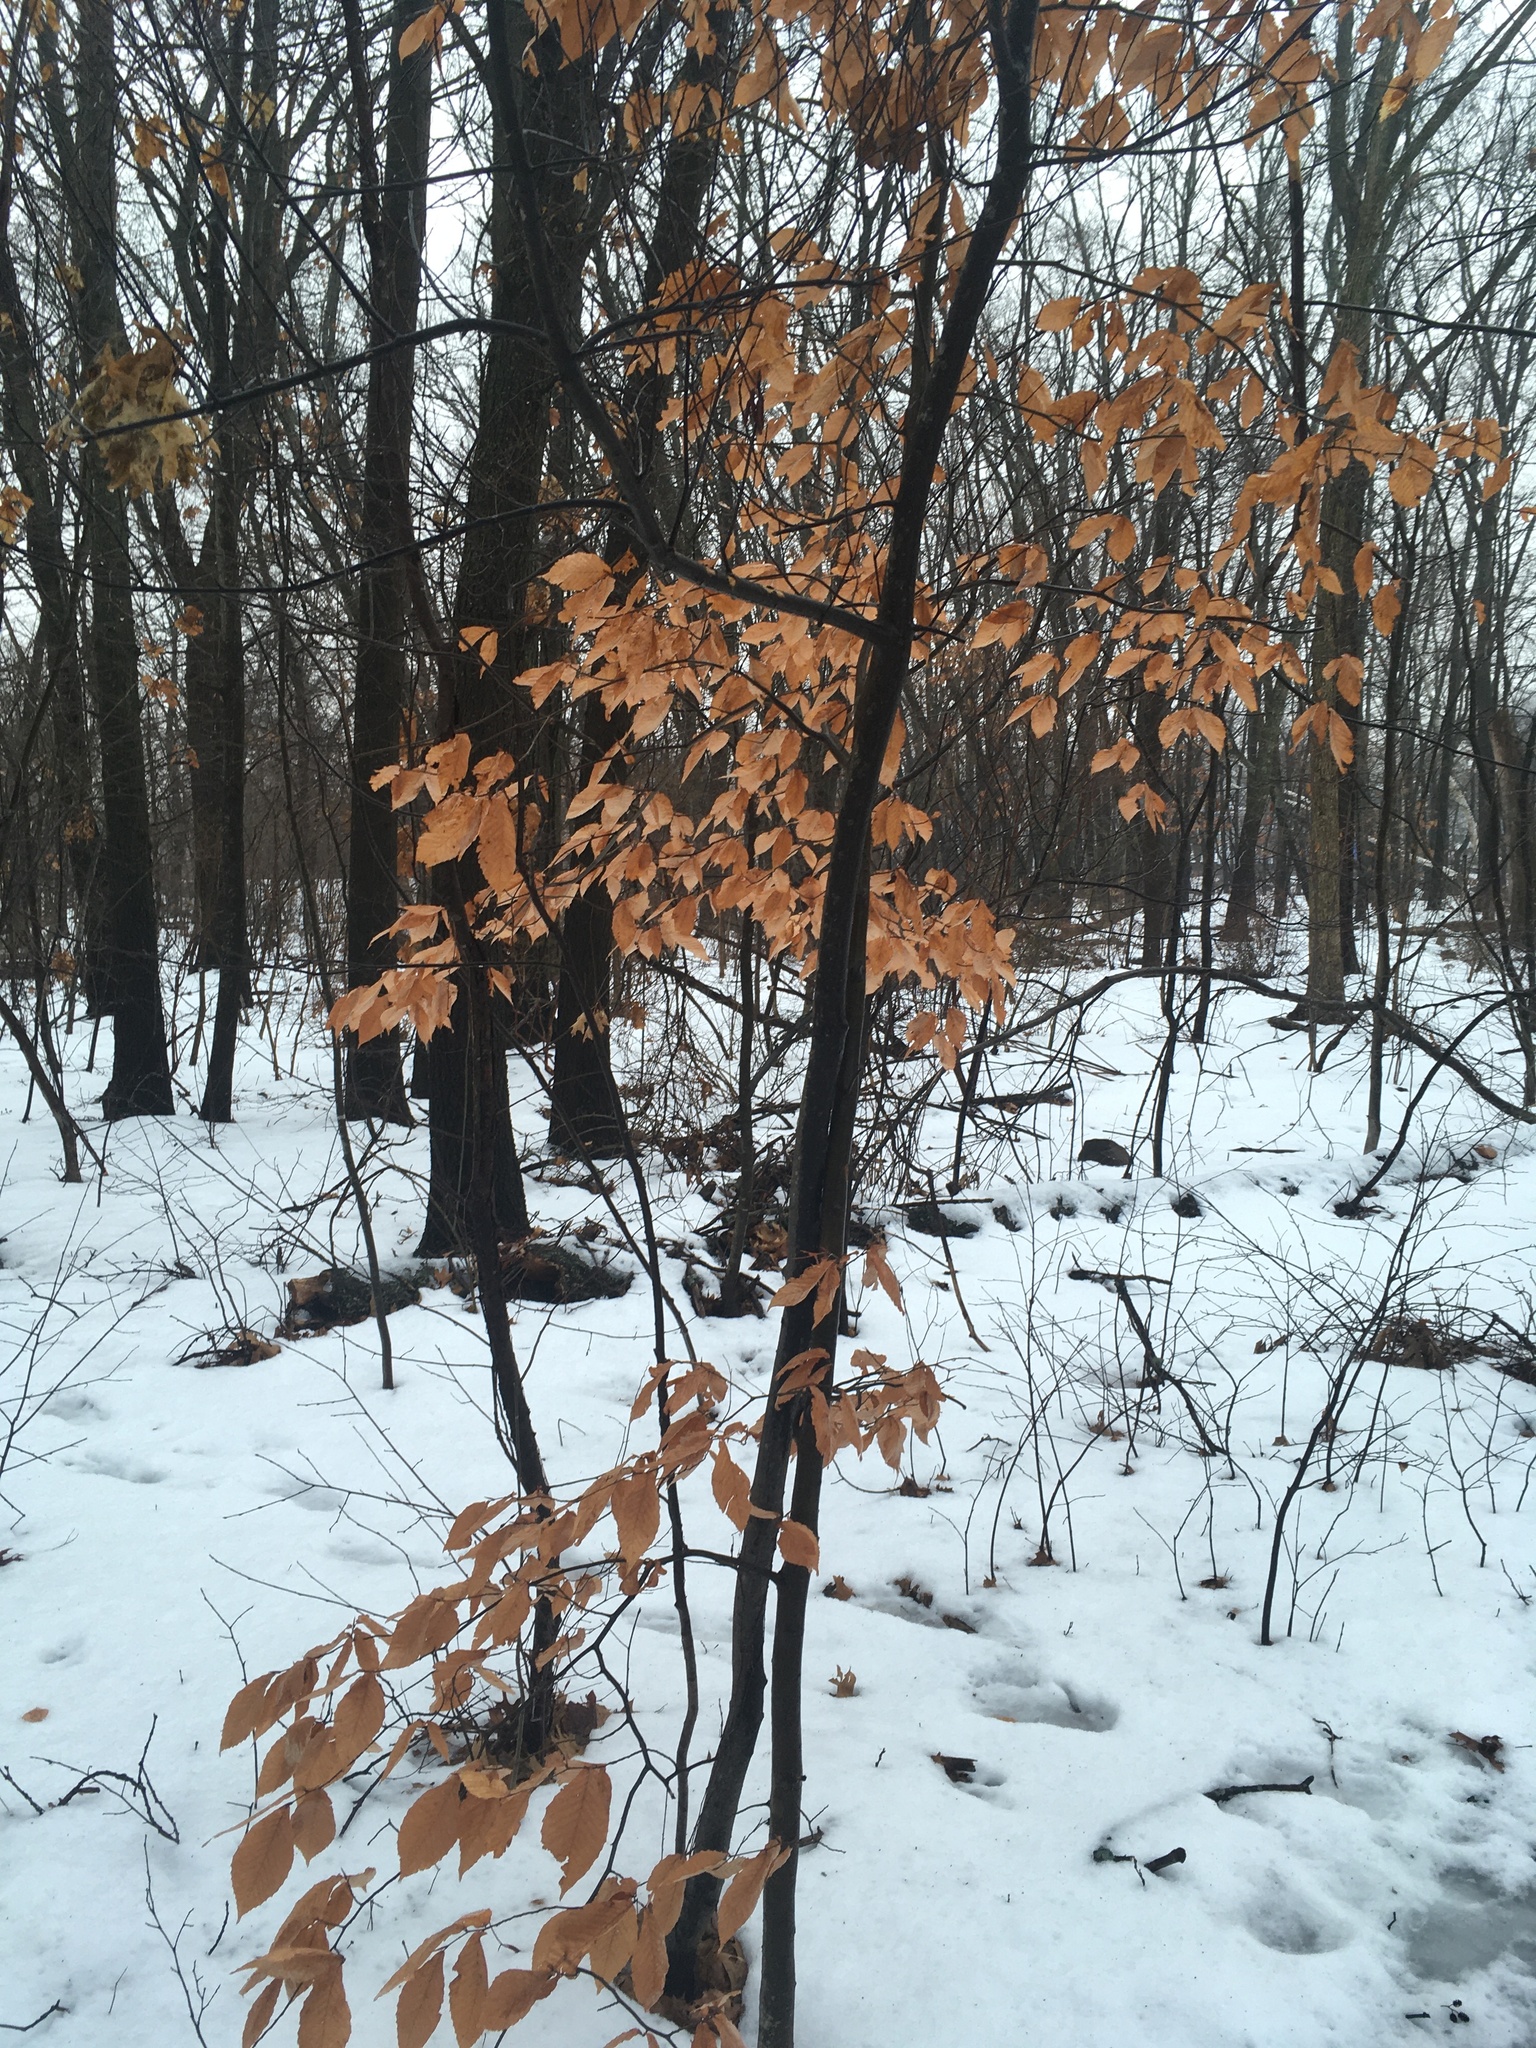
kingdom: Plantae
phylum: Tracheophyta
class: Magnoliopsida
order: Fagales
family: Fagaceae
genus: Fagus
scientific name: Fagus grandifolia
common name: American beech
